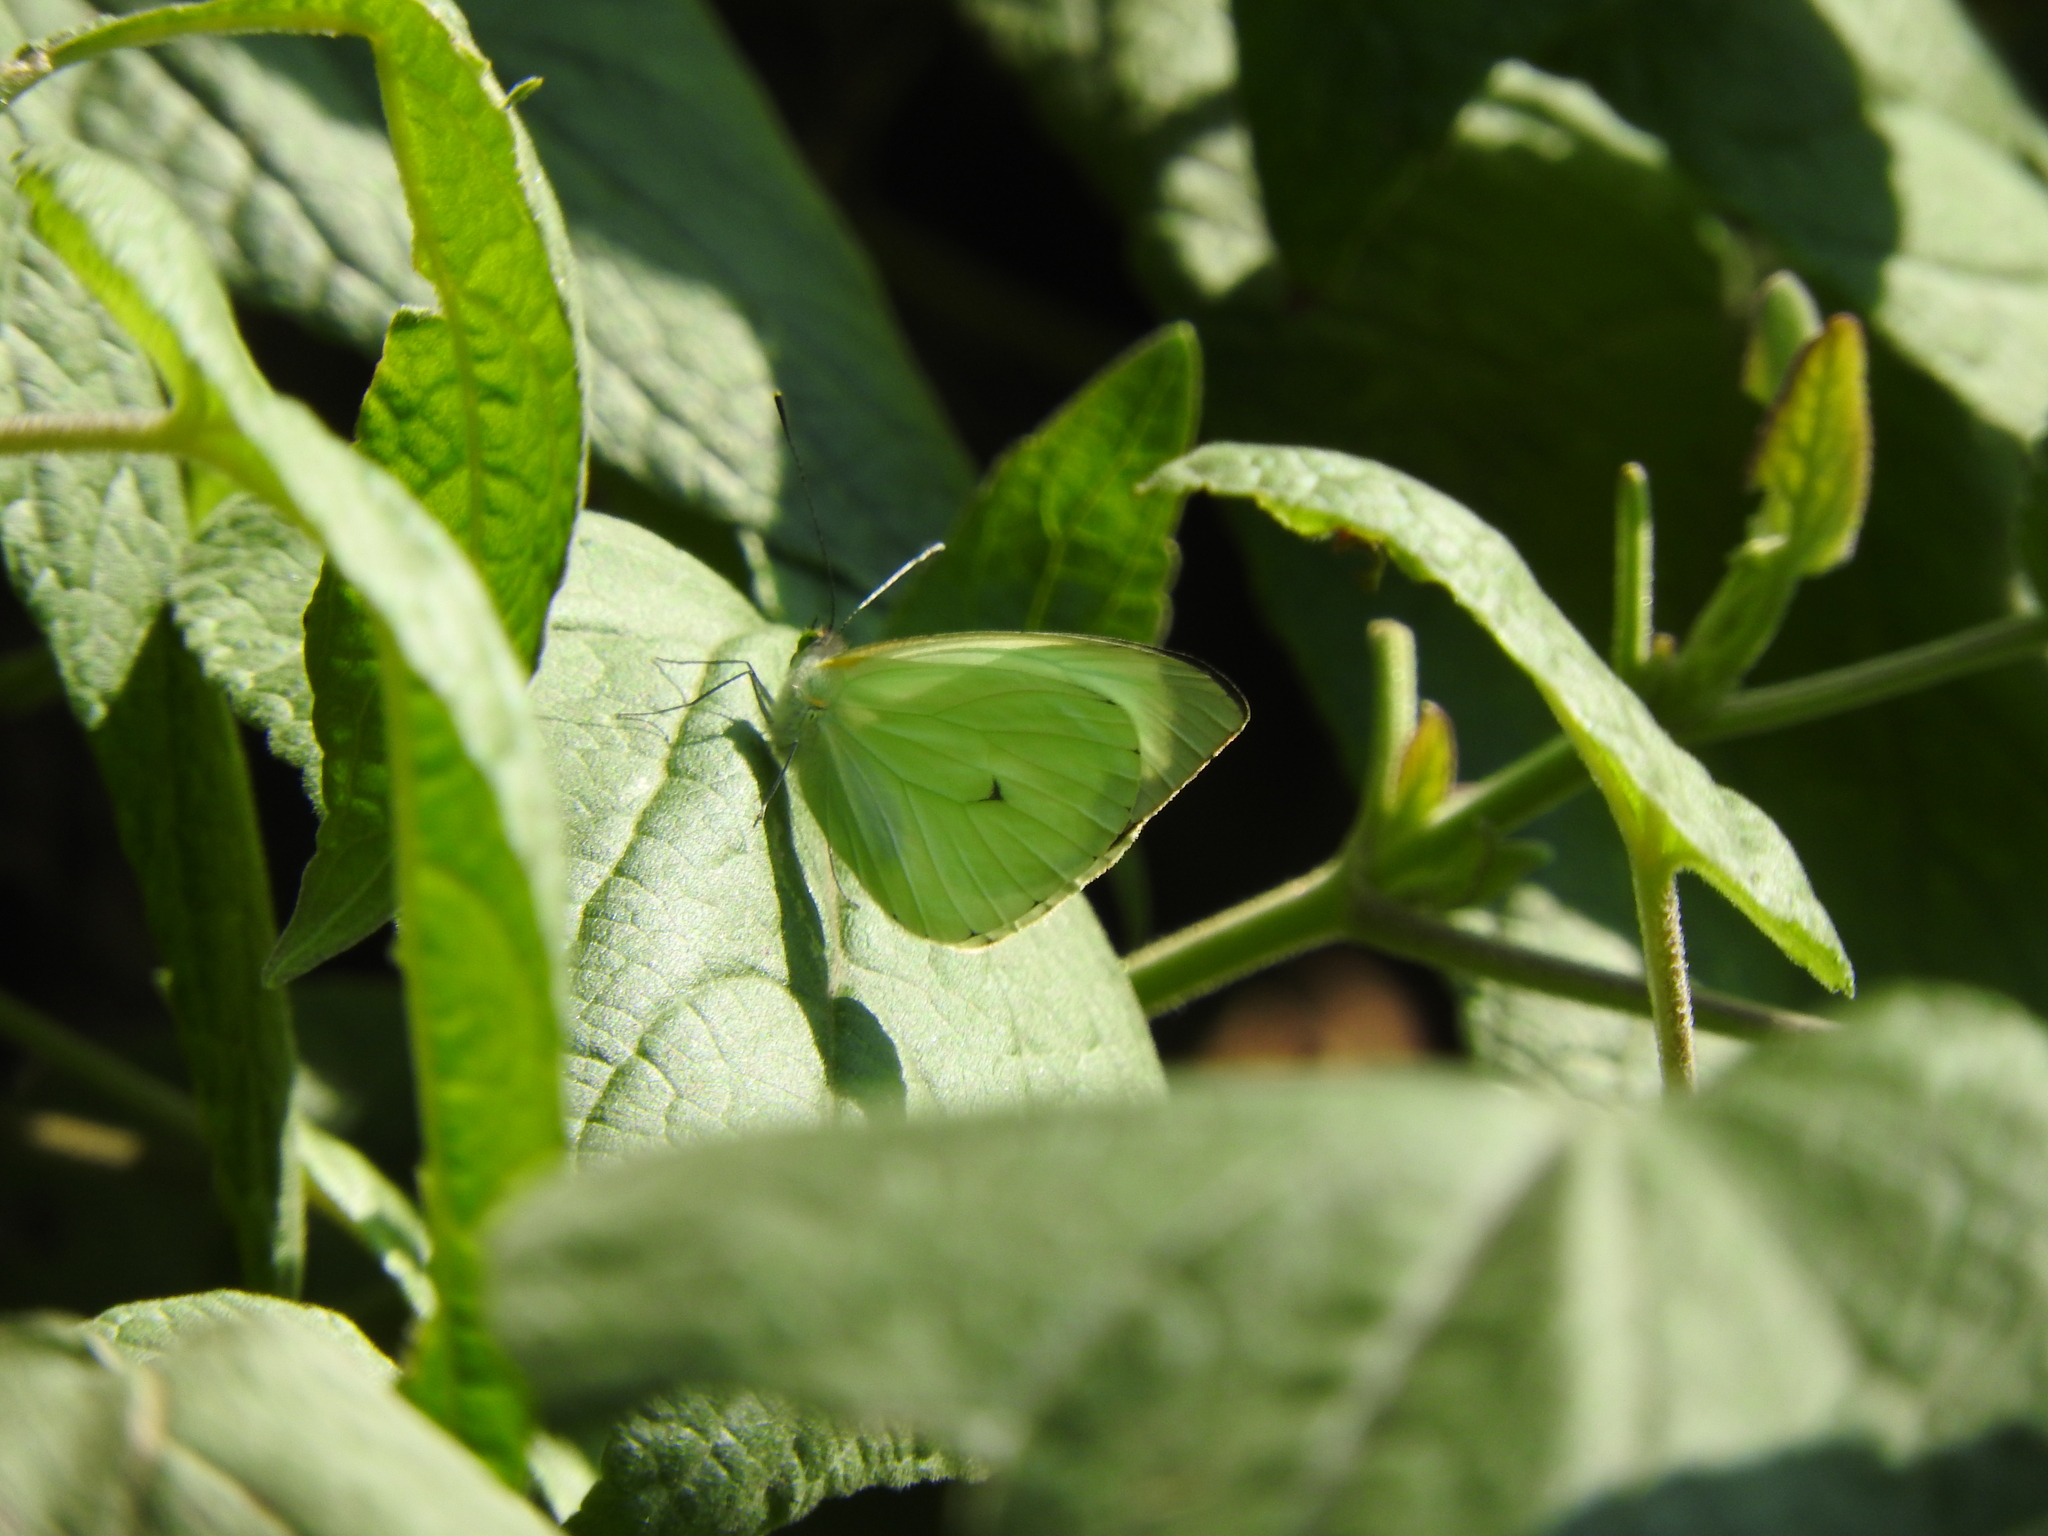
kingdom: Animalia
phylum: Arthropoda
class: Insecta
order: Lepidoptera
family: Pieridae
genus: Leptophobia
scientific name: Leptophobia aripa
